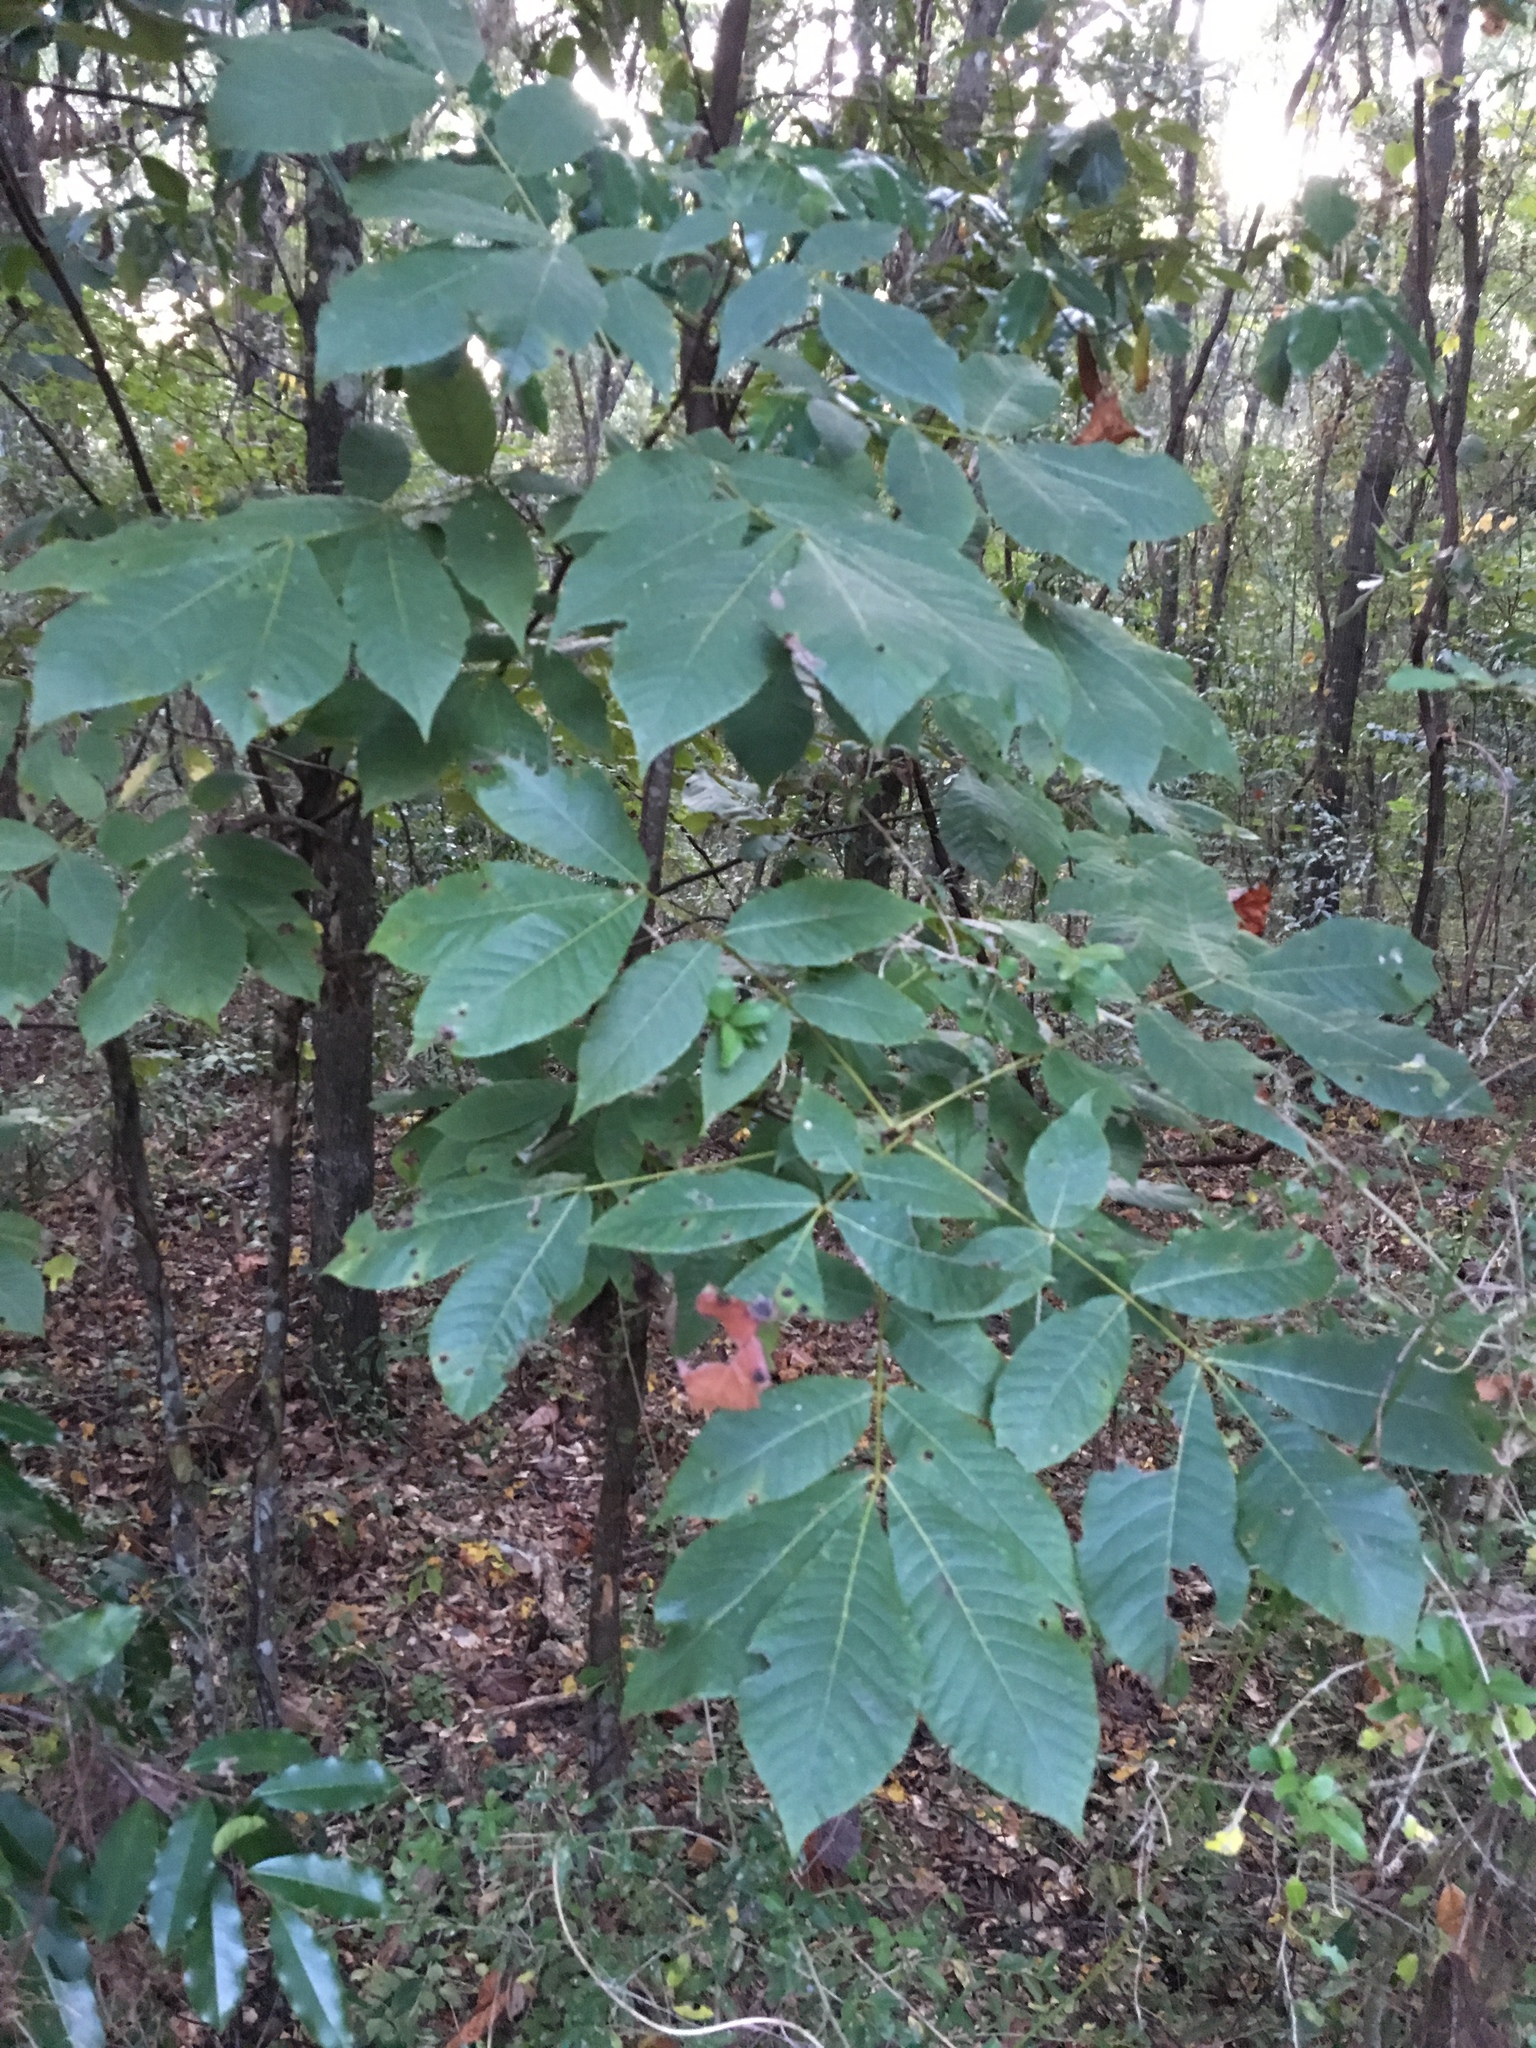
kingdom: Plantae
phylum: Tracheophyta
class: Magnoliopsida
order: Fagales
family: Juglandaceae
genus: Carya
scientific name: Carya alba
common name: Mockernut hickory
